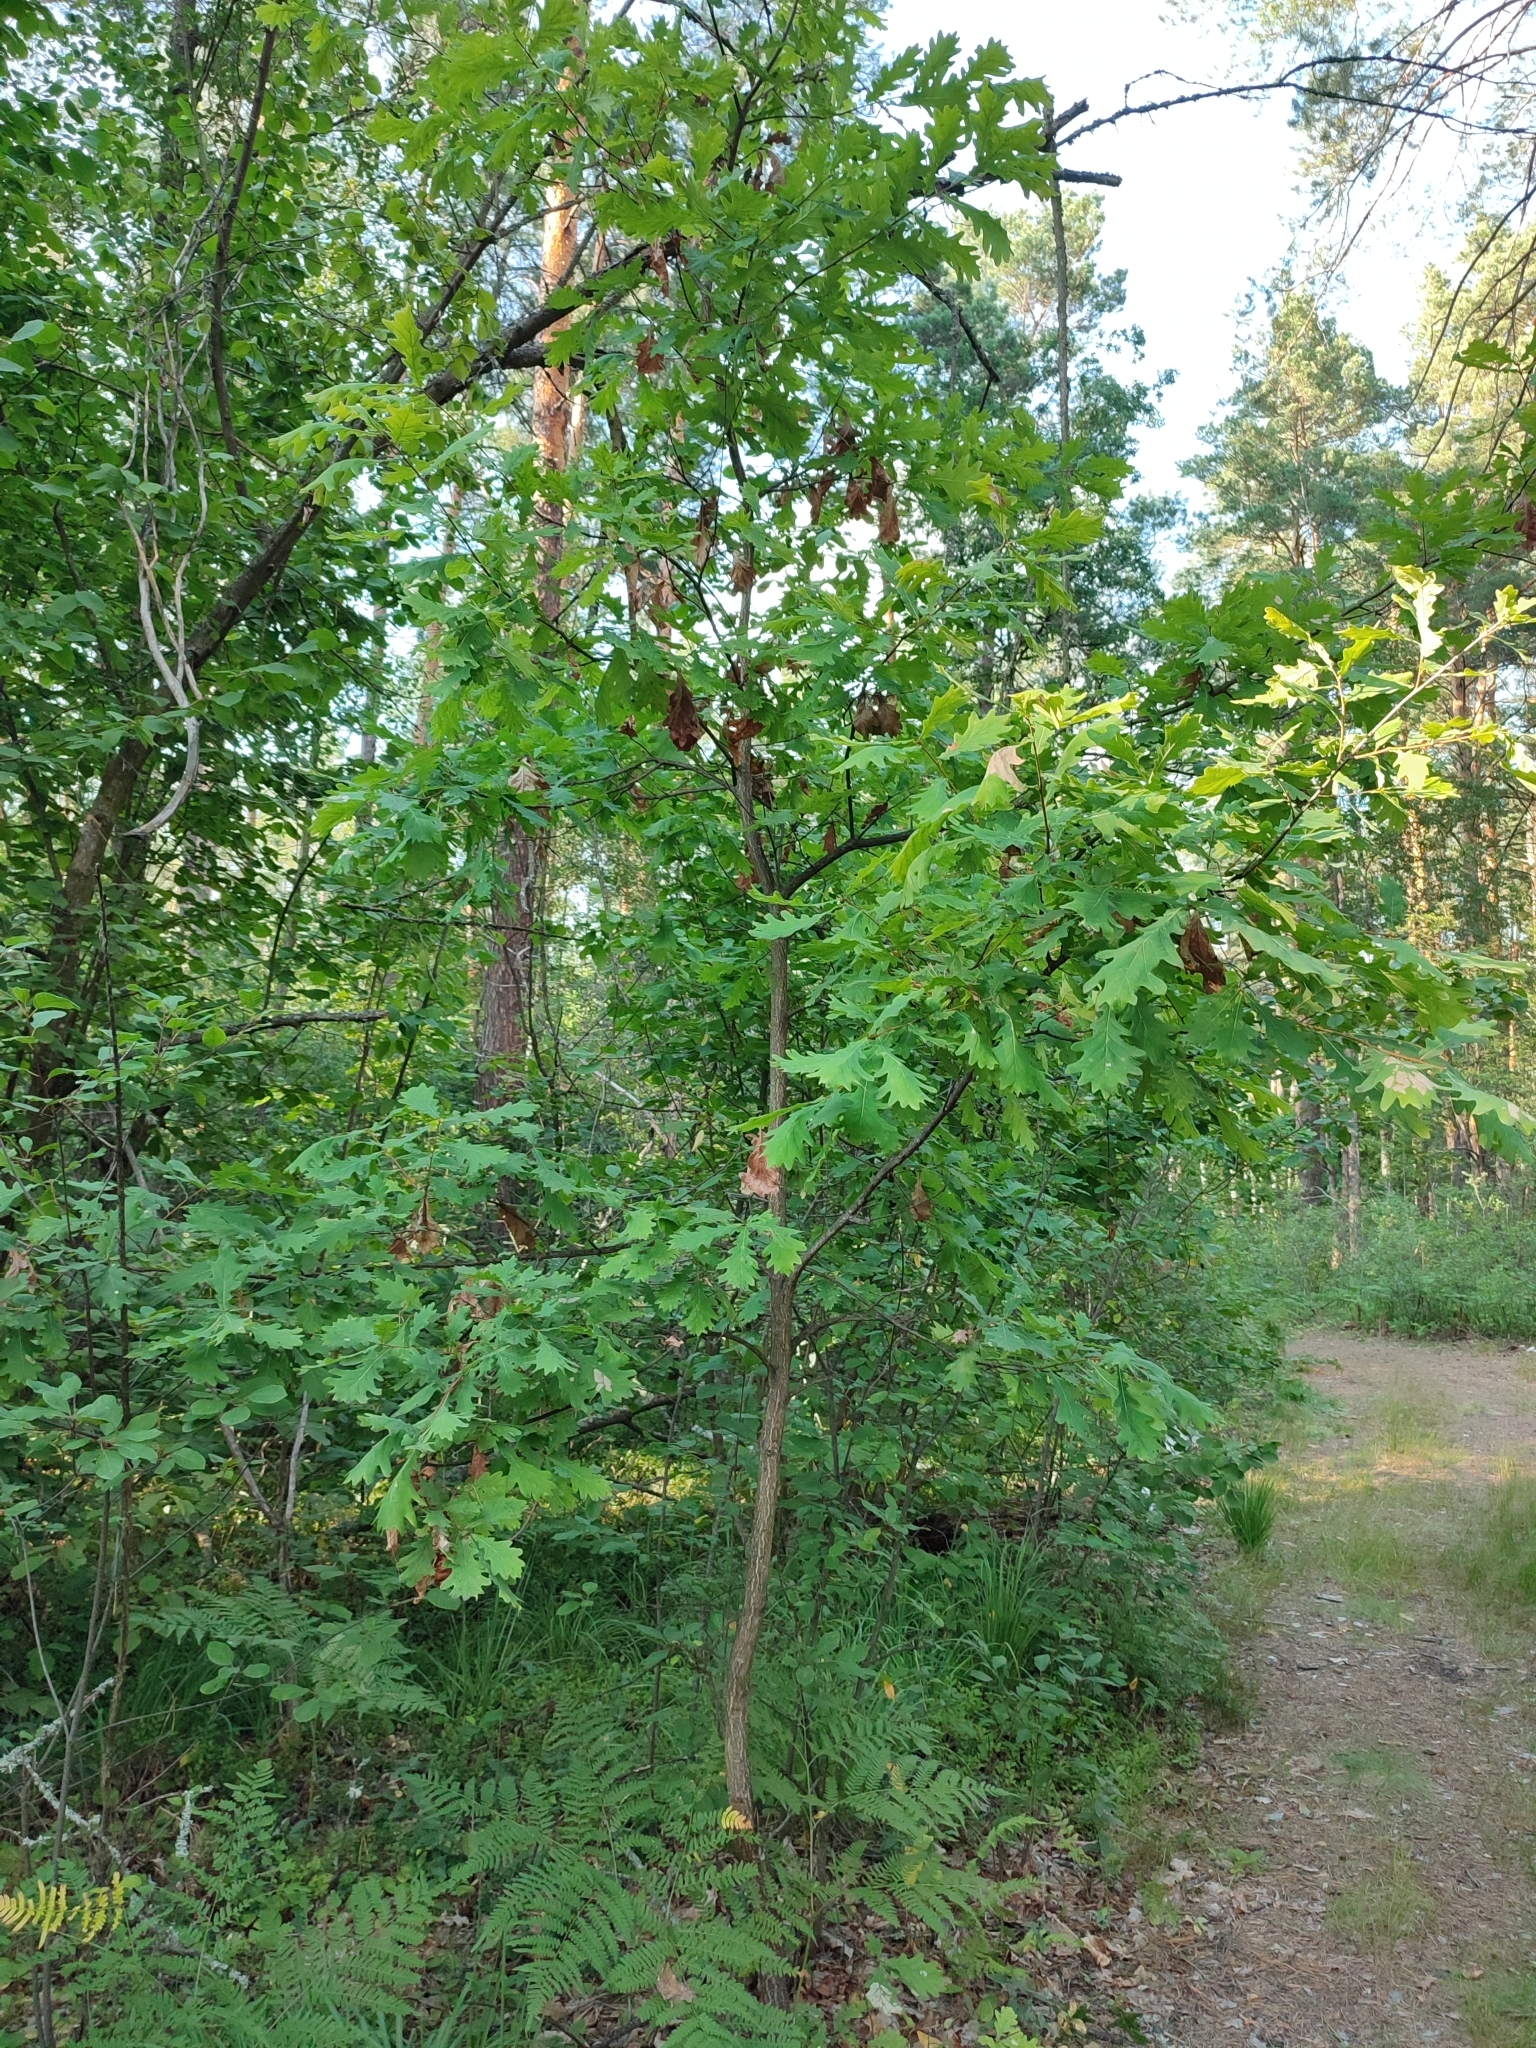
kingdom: Plantae
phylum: Tracheophyta
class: Magnoliopsida
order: Fagales
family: Fagaceae
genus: Quercus
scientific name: Quercus robur
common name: Pedunculate oak
